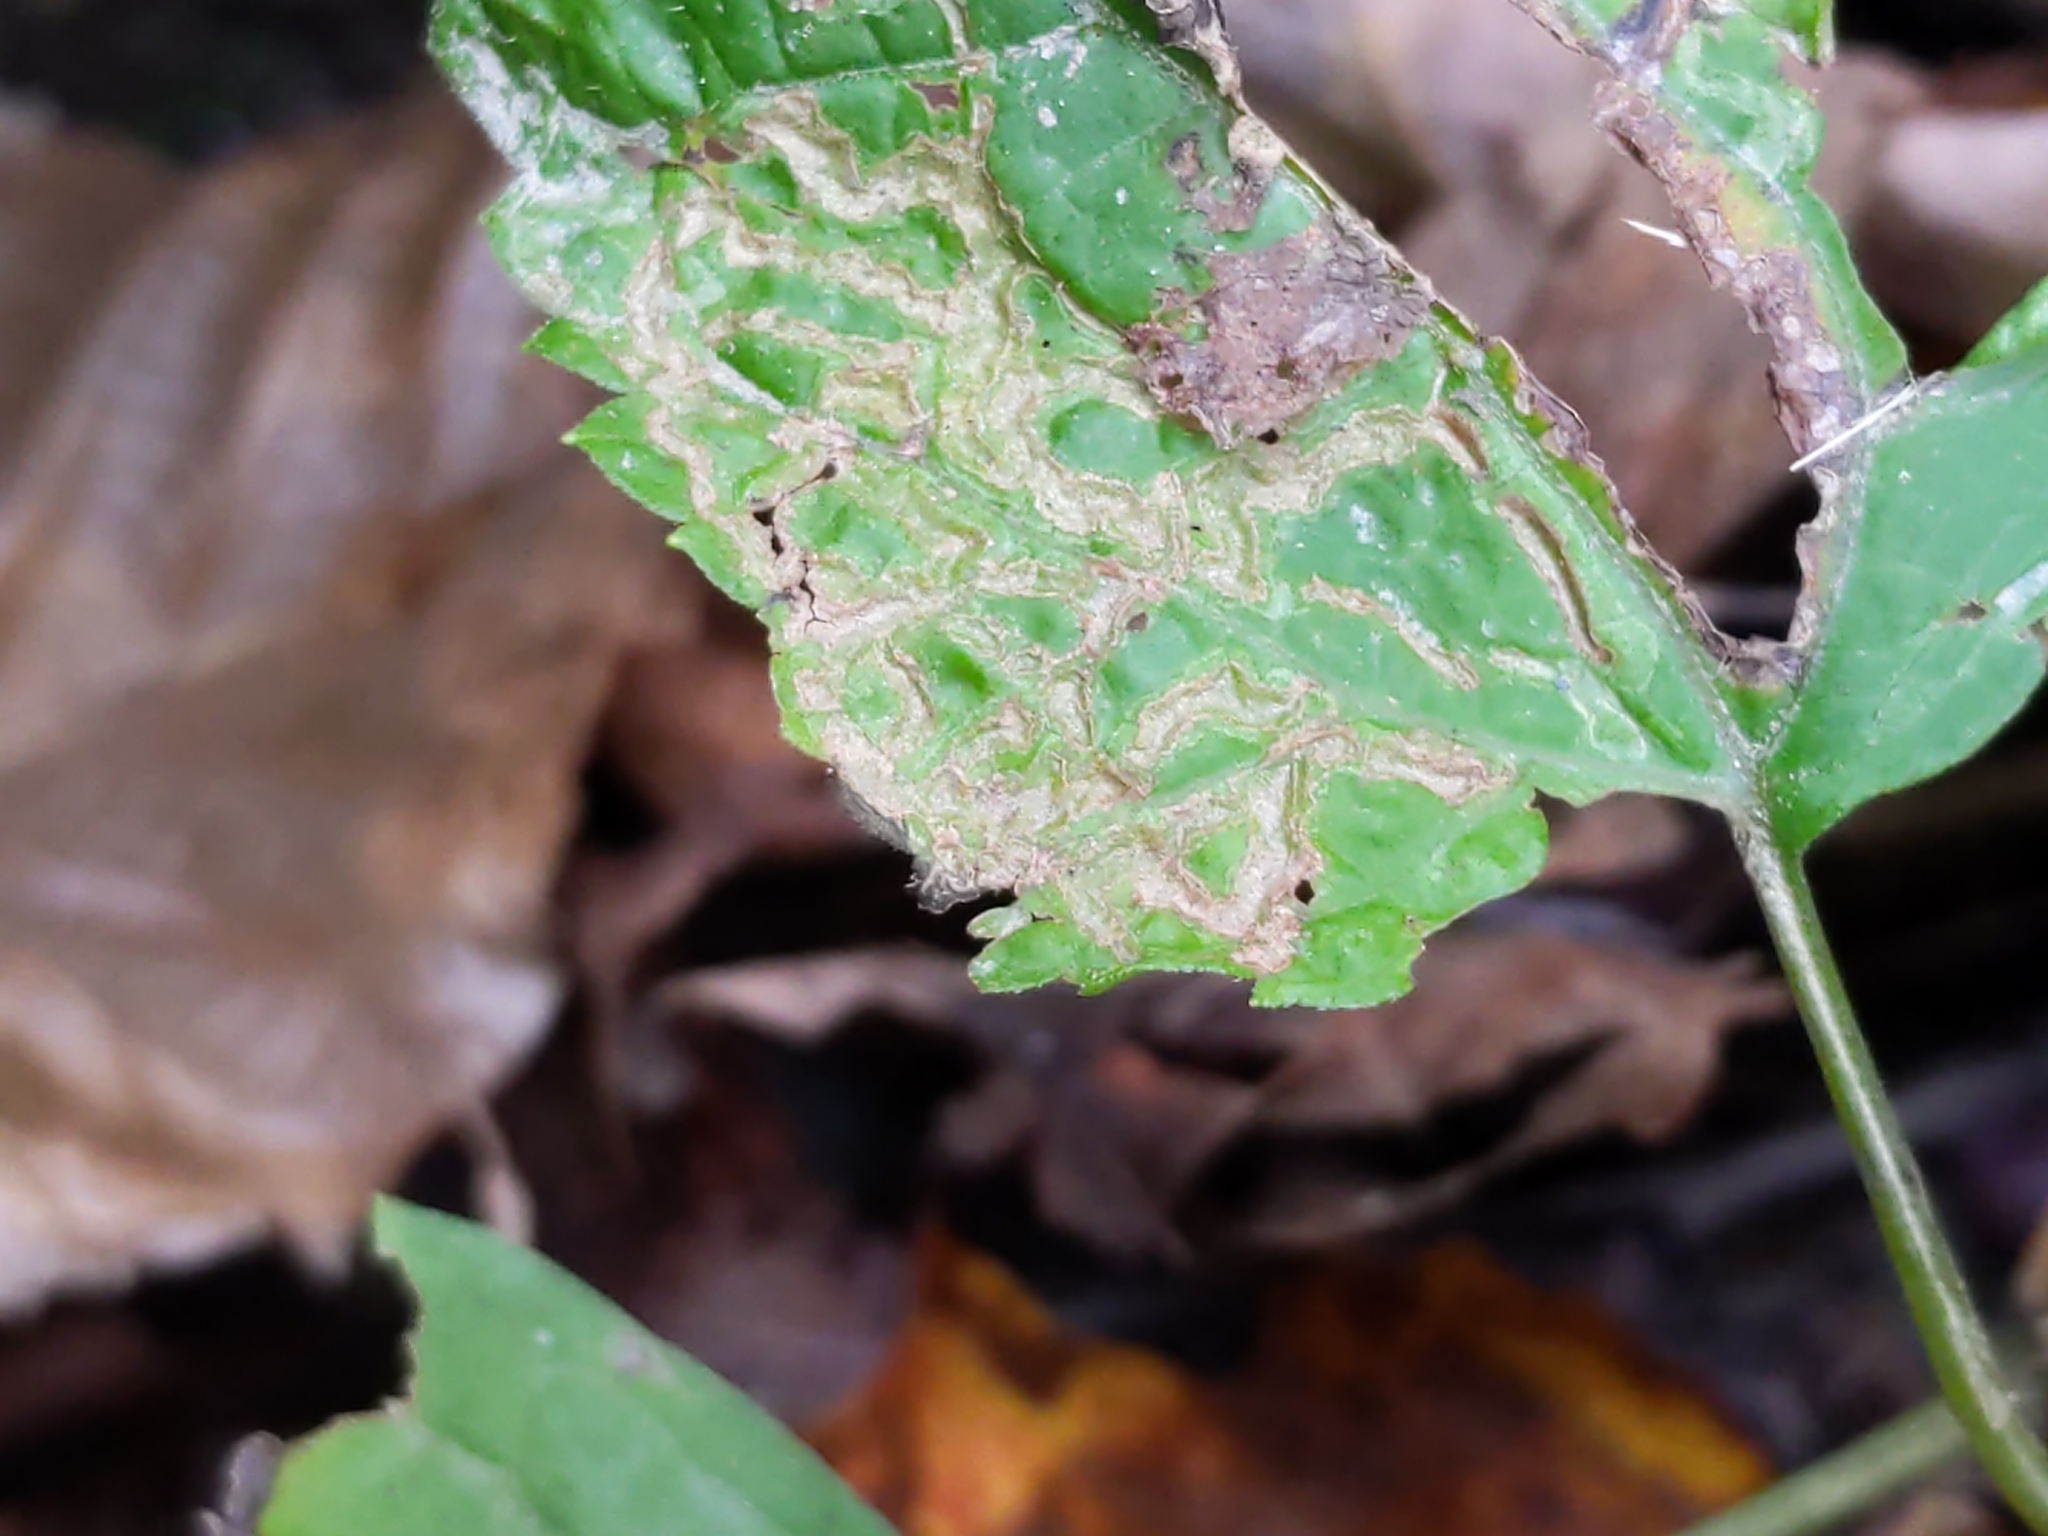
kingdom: Animalia
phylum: Arthropoda
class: Insecta
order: Diptera
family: Agromyzidae
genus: Liriomyza
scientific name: Liriomyza
